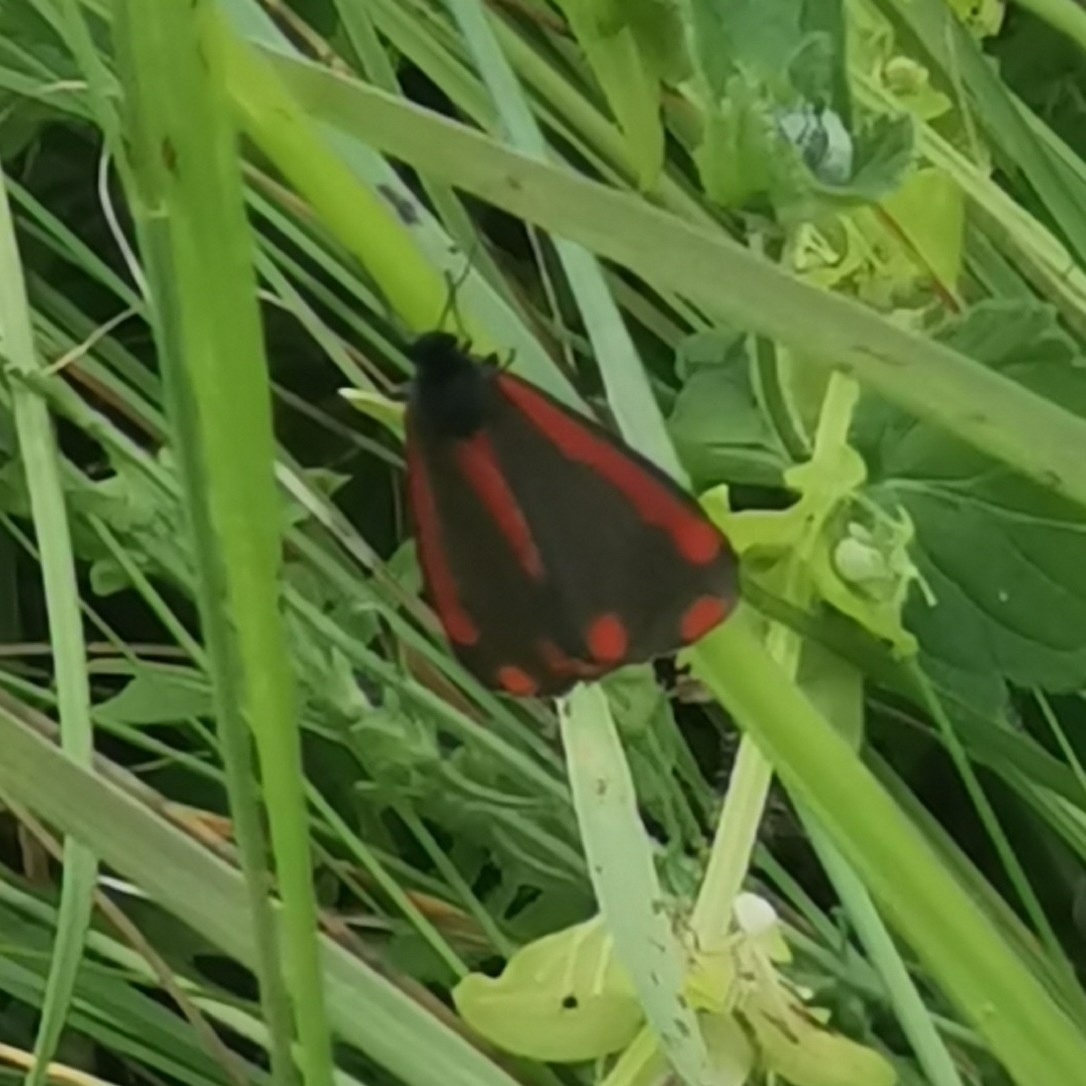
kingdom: Animalia
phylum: Arthropoda
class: Insecta
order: Lepidoptera
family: Erebidae
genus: Tyria
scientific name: Tyria jacobaeae
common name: Cinnabar
